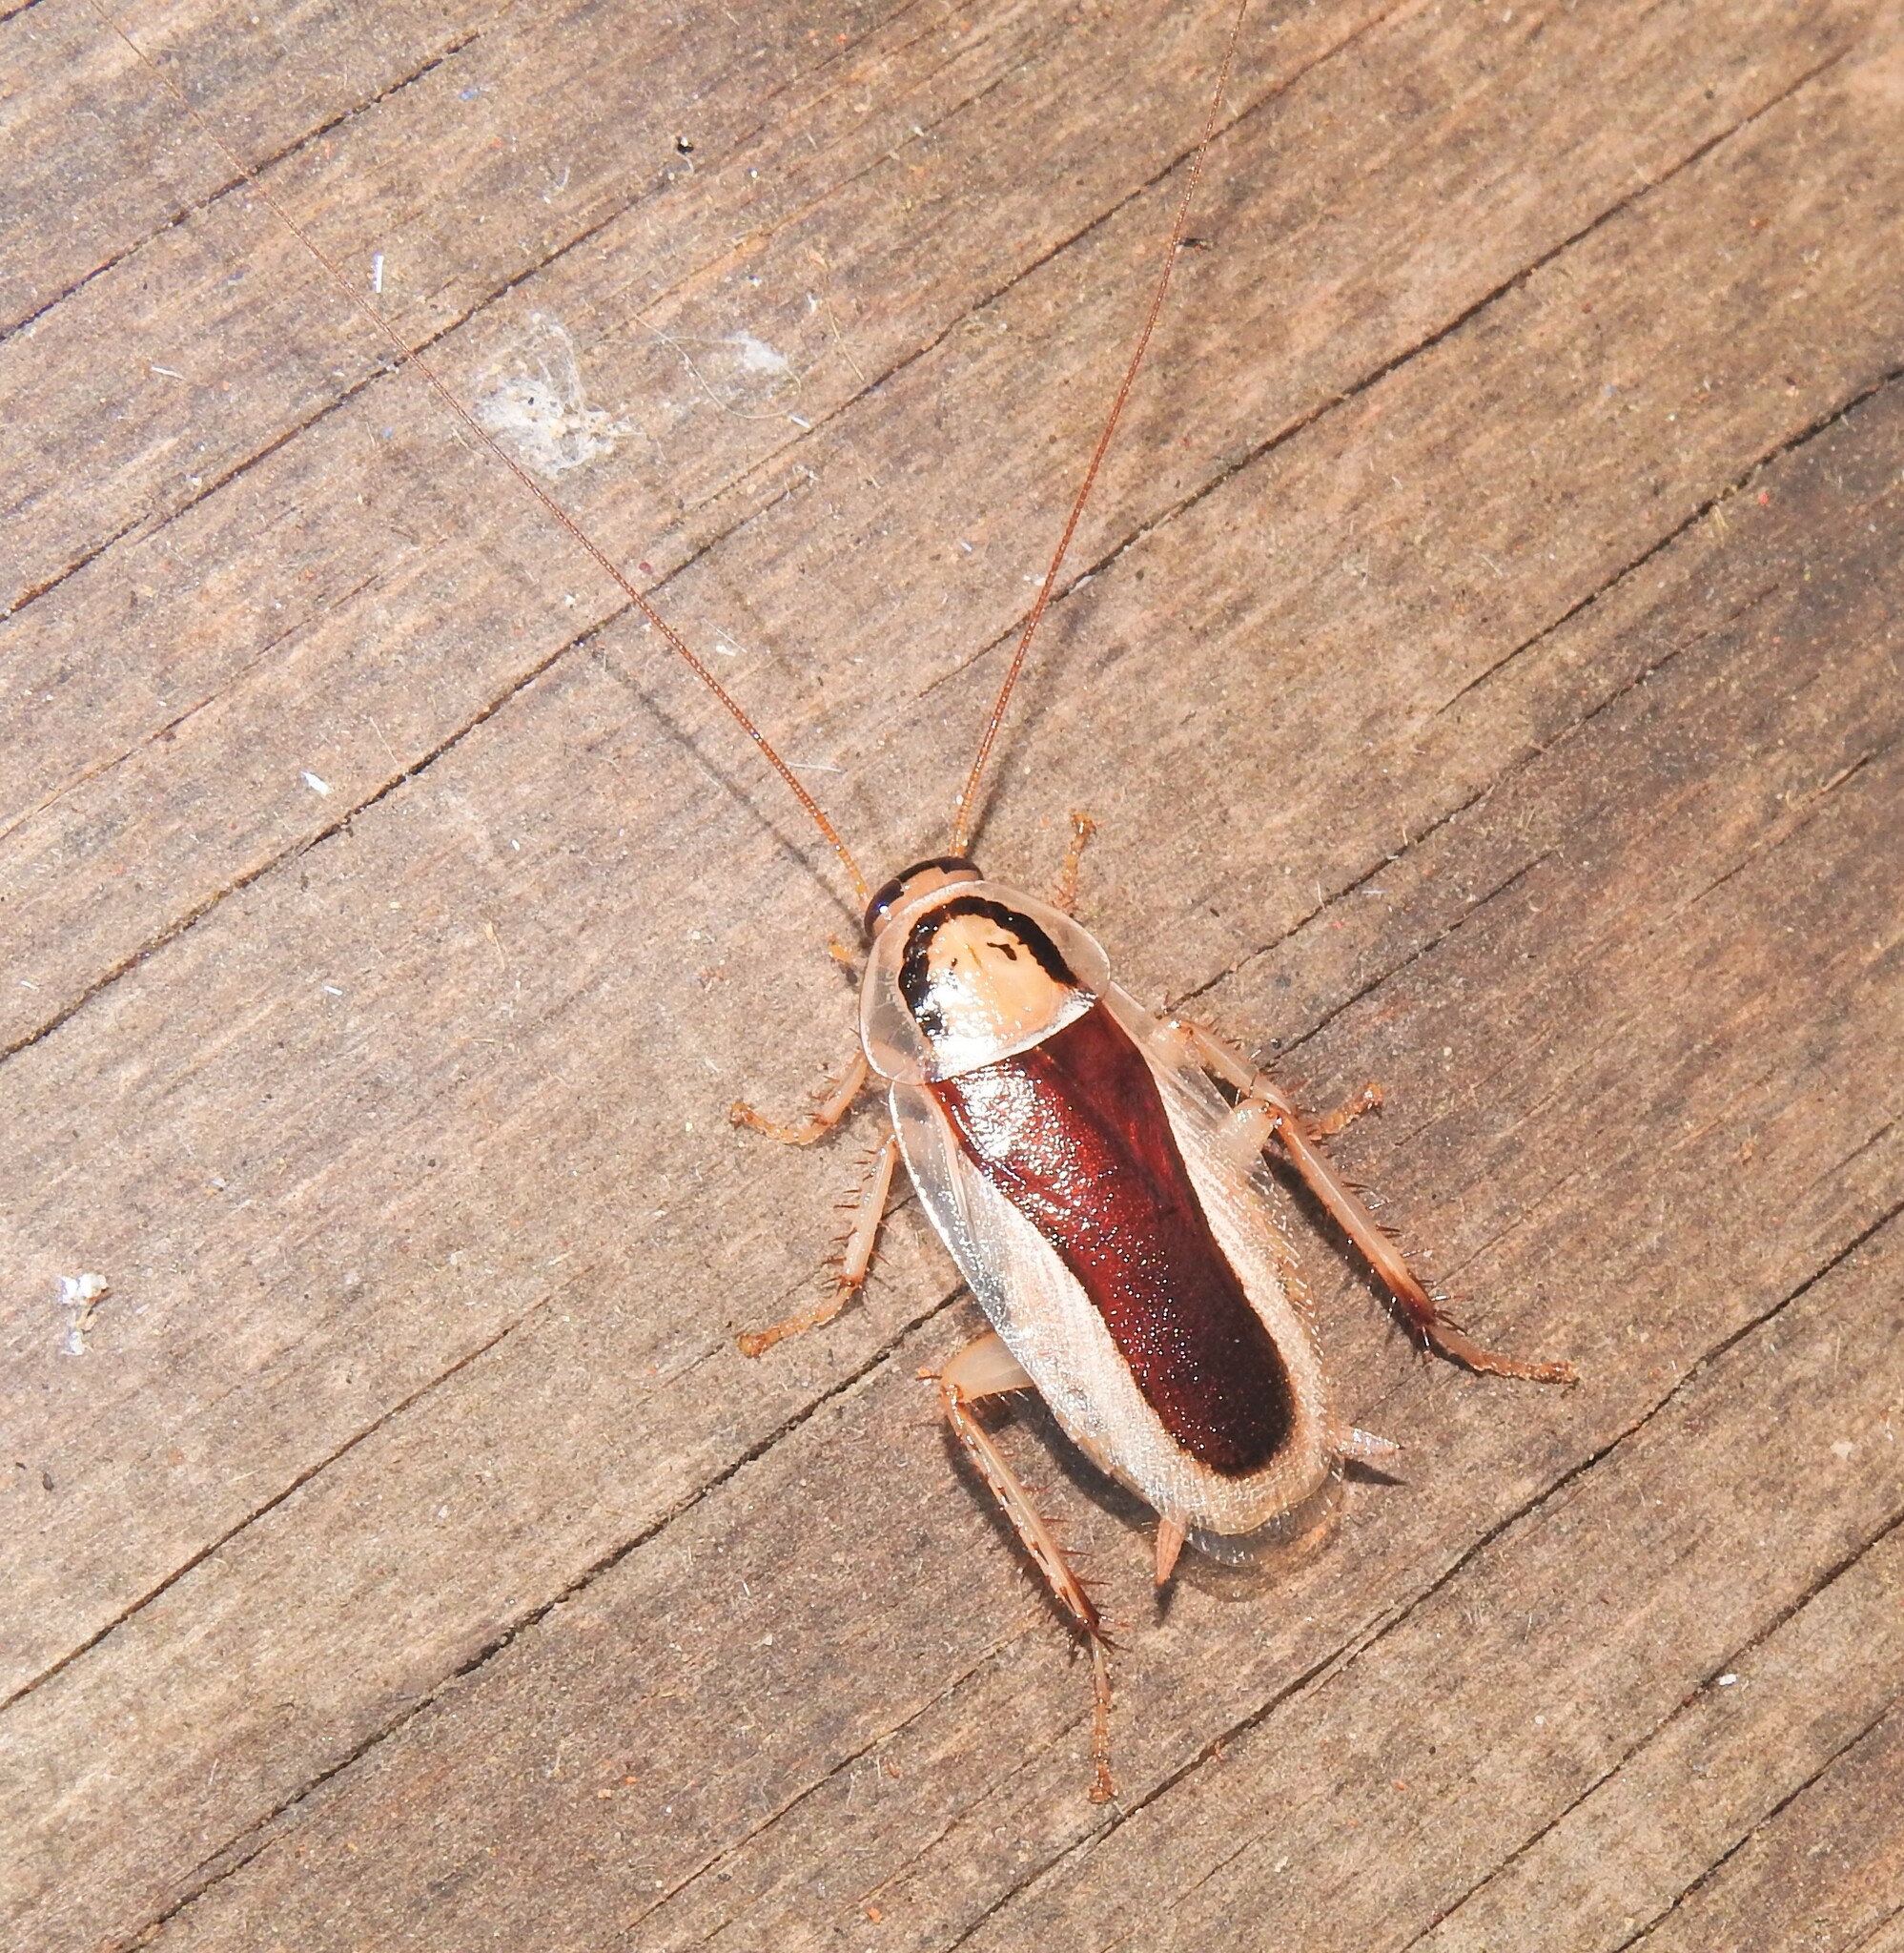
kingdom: Animalia
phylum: Arthropoda
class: Insecta
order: Blattodea
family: Blattidae
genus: Methana
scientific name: Methana curvigera
